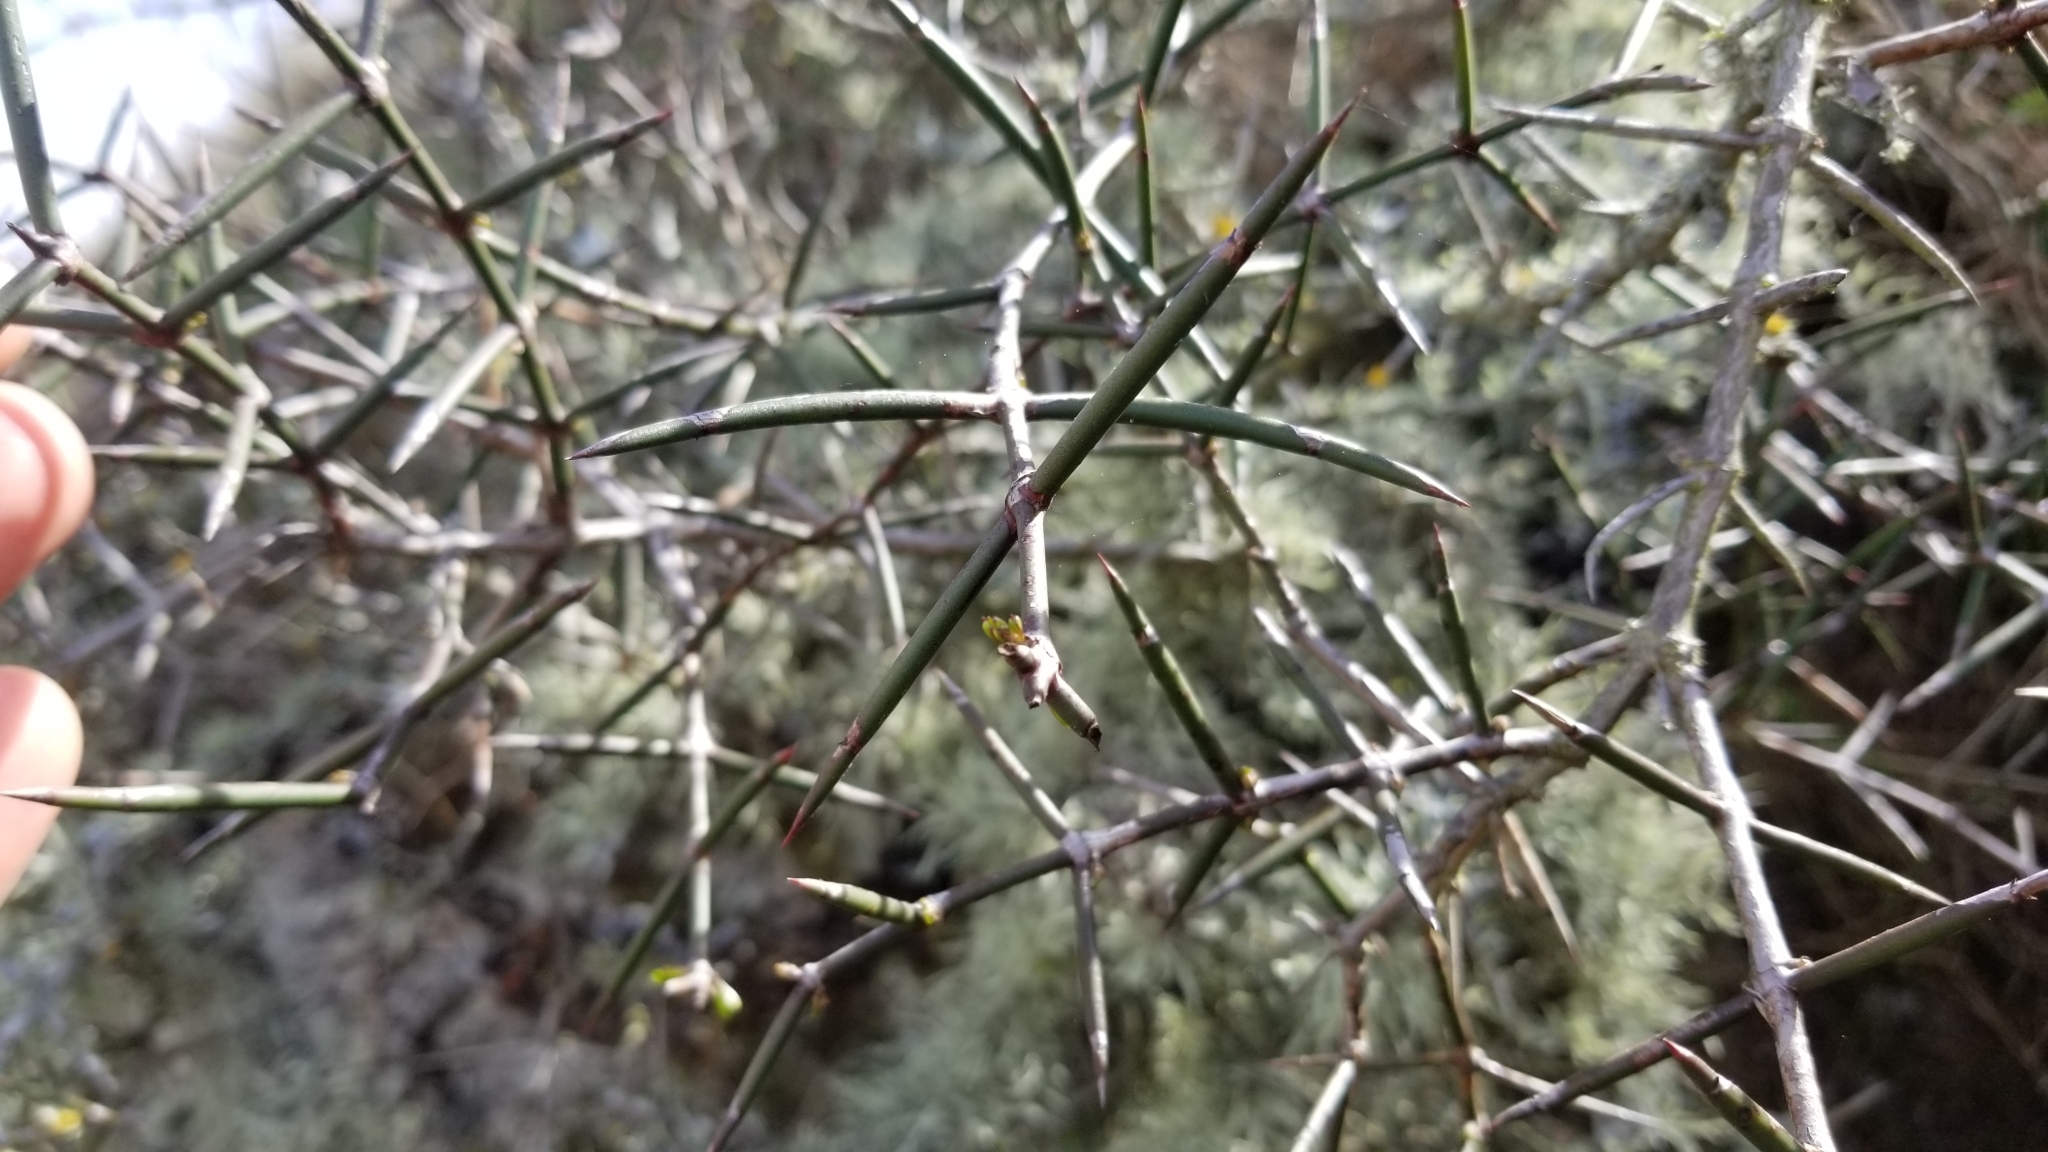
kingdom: Plantae
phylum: Tracheophyta
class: Magnoliopsida
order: Rosales
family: Rhamnaceae
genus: Discaria
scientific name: Discaria toumatou
